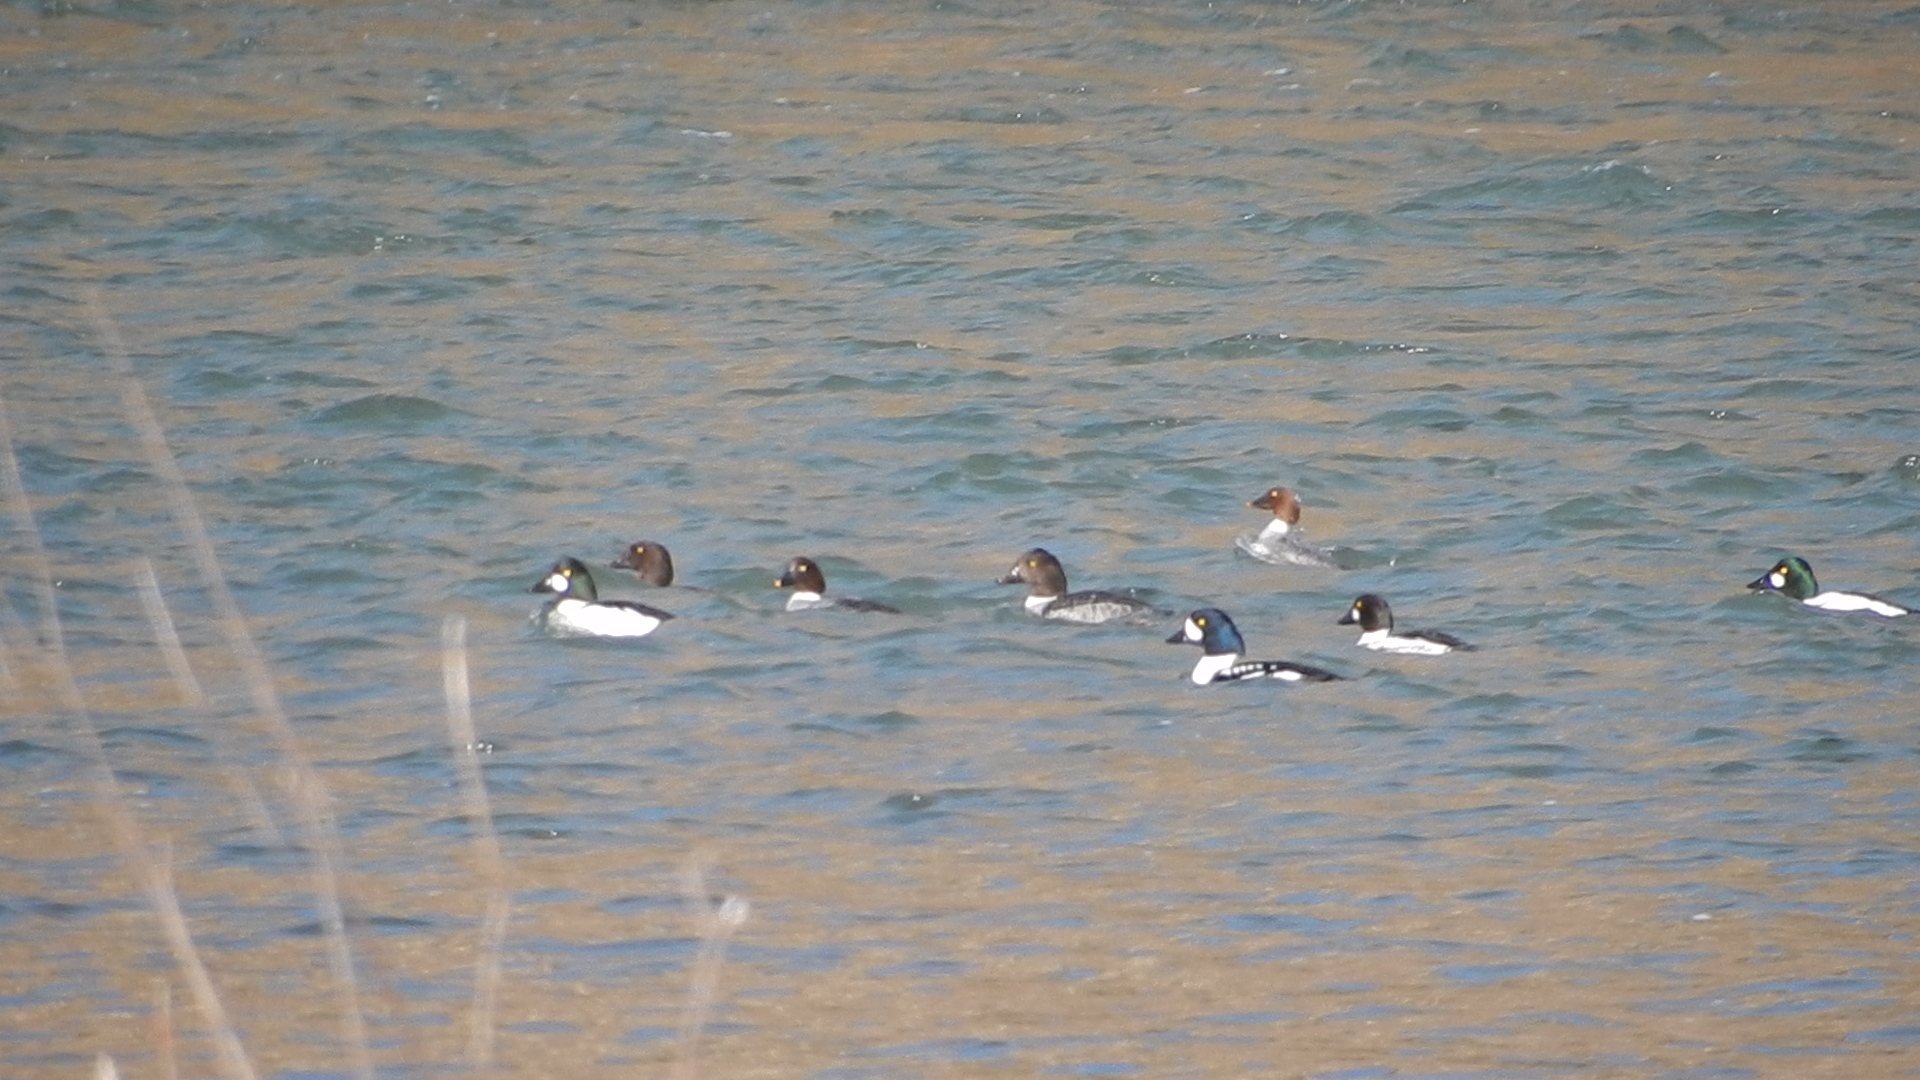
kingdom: Animalia
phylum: Chordata
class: Aves
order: Anseriformes
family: Anatidae
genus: Bucephala
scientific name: Bucephala islandica
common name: Barrow's goldeneye
